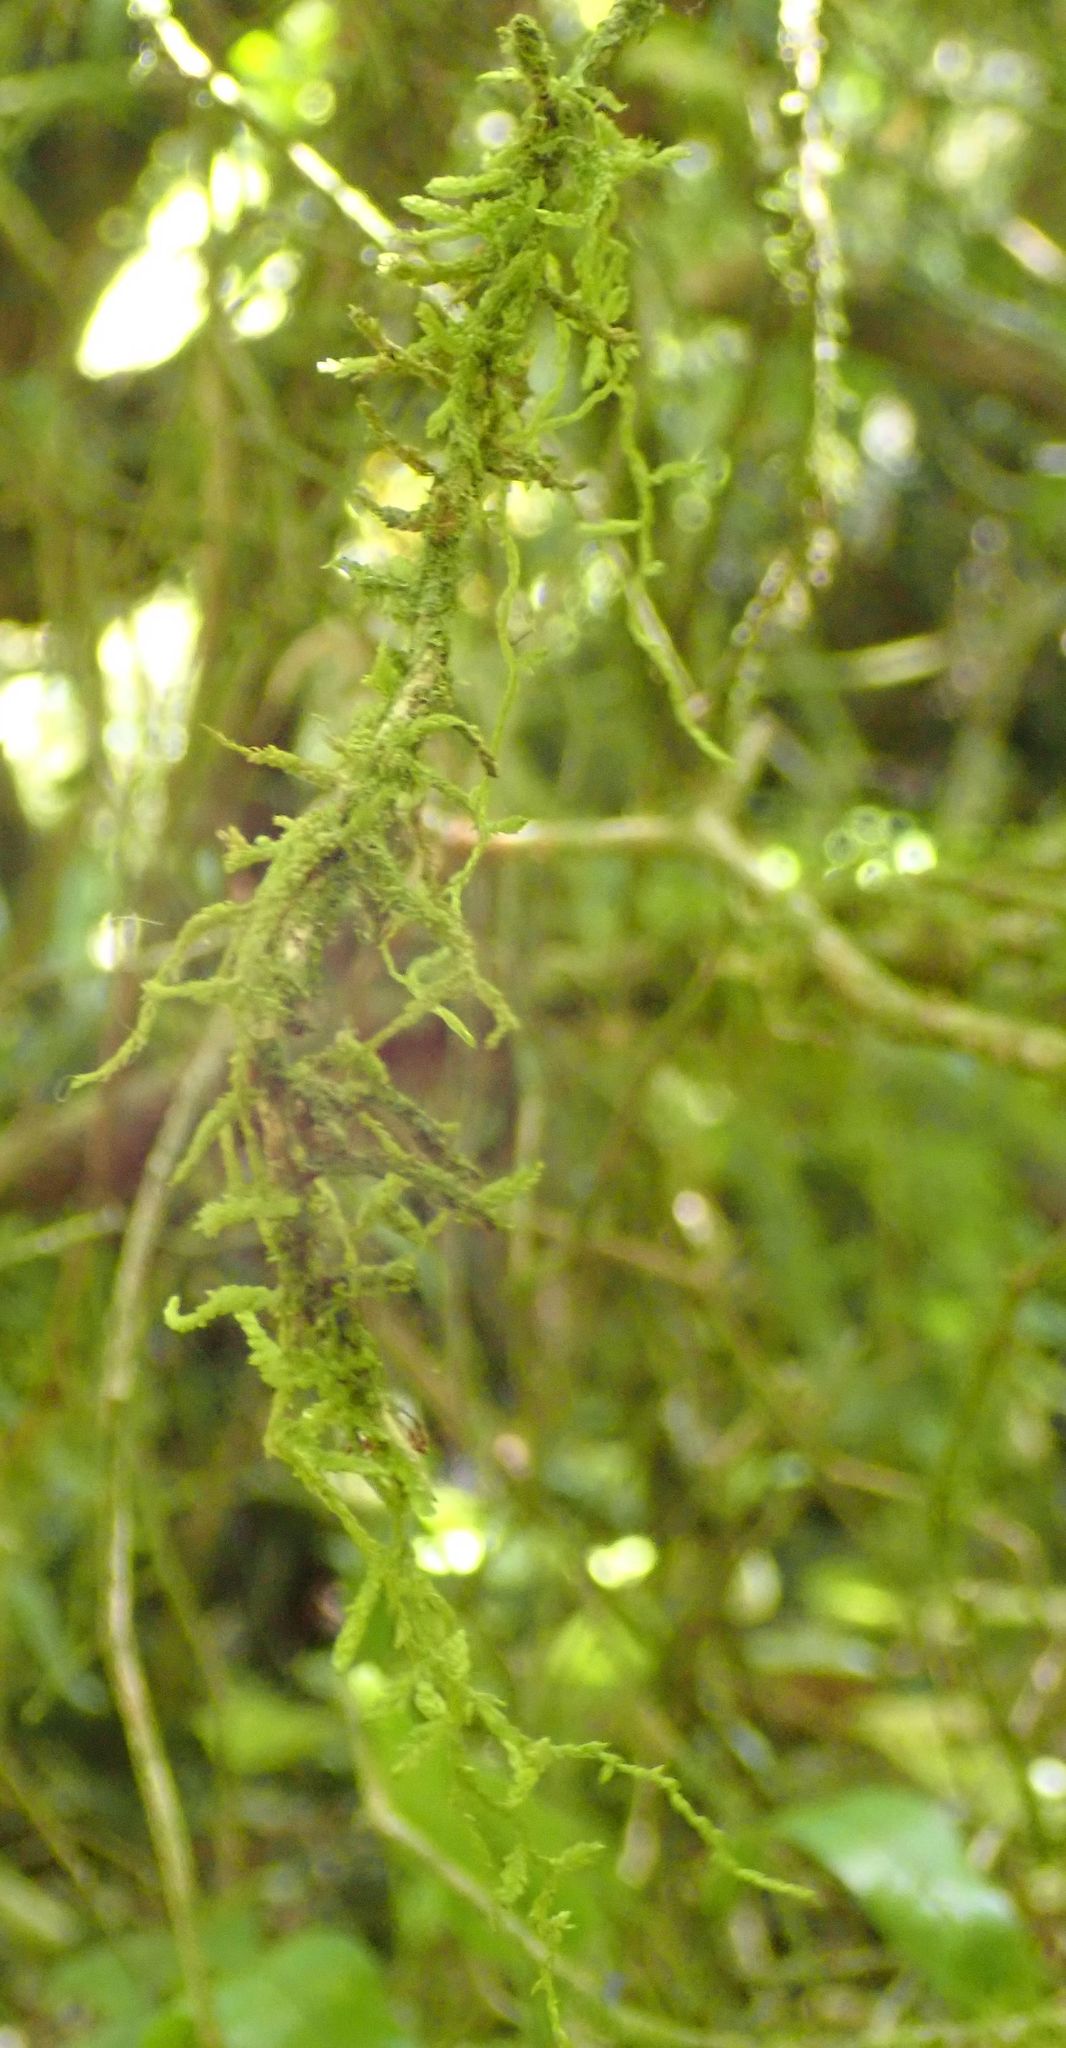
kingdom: Plantae
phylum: Bryophyta
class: Bryopsida
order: Hypnales
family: Lembophyllaceae
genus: Weymouthia
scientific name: Weymouthia mollis
